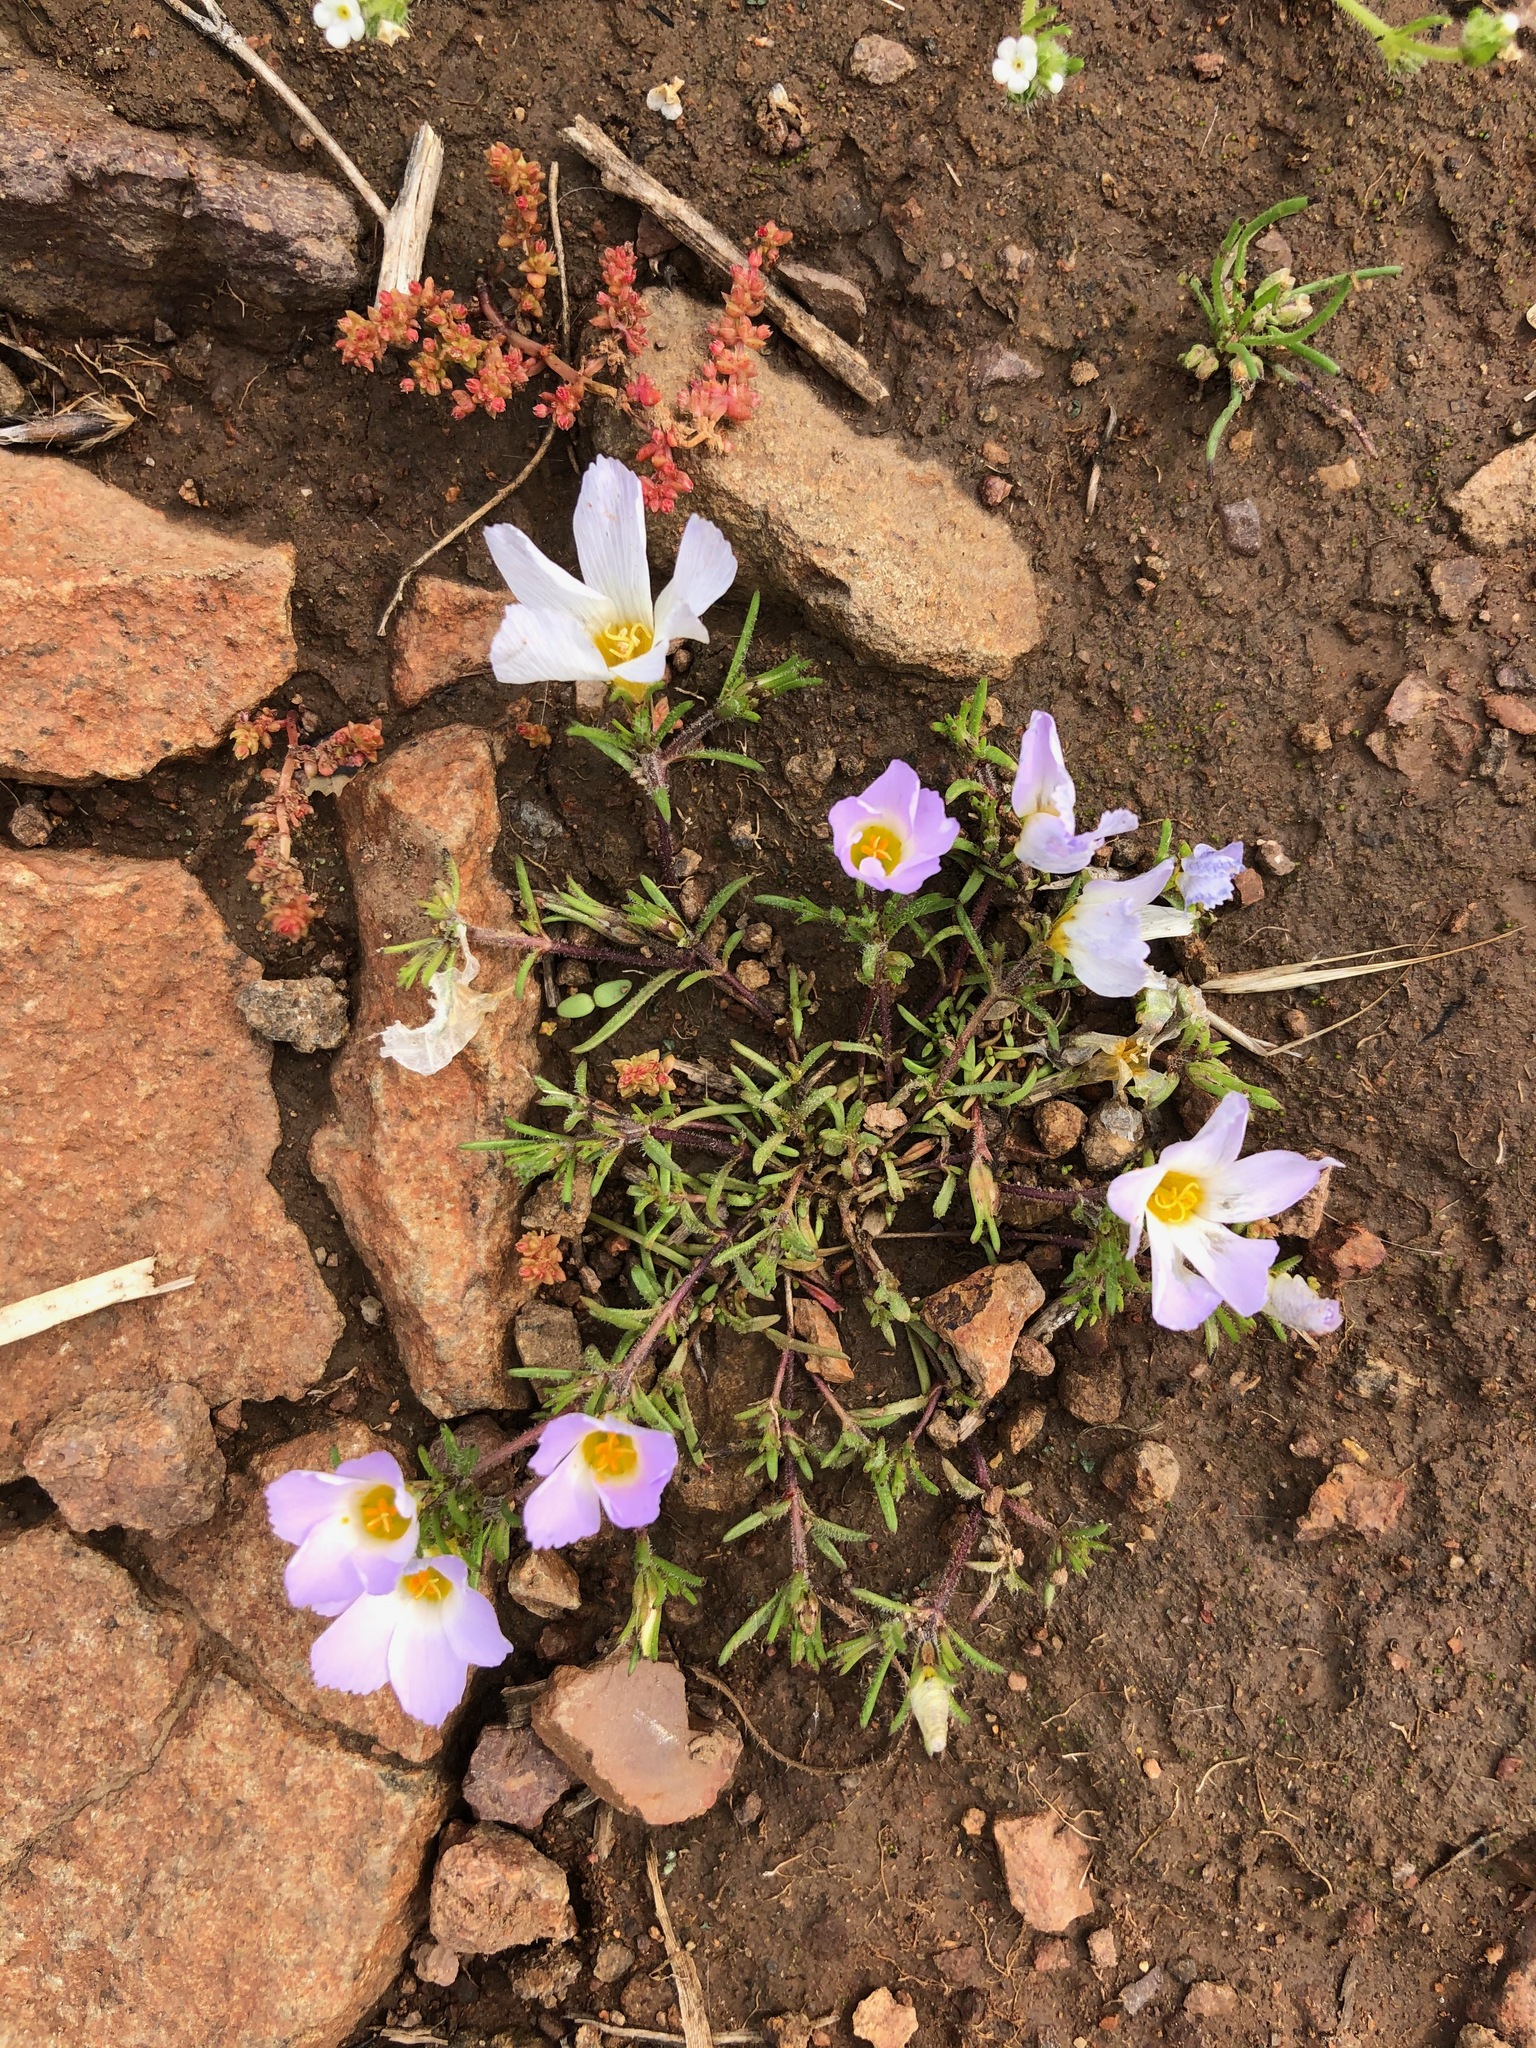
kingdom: Plantae
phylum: Tracheophyta
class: Magnoliopsida
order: Ericales
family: Polemoniaceae
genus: Linanthus
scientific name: Linanthus dianthiflorus
